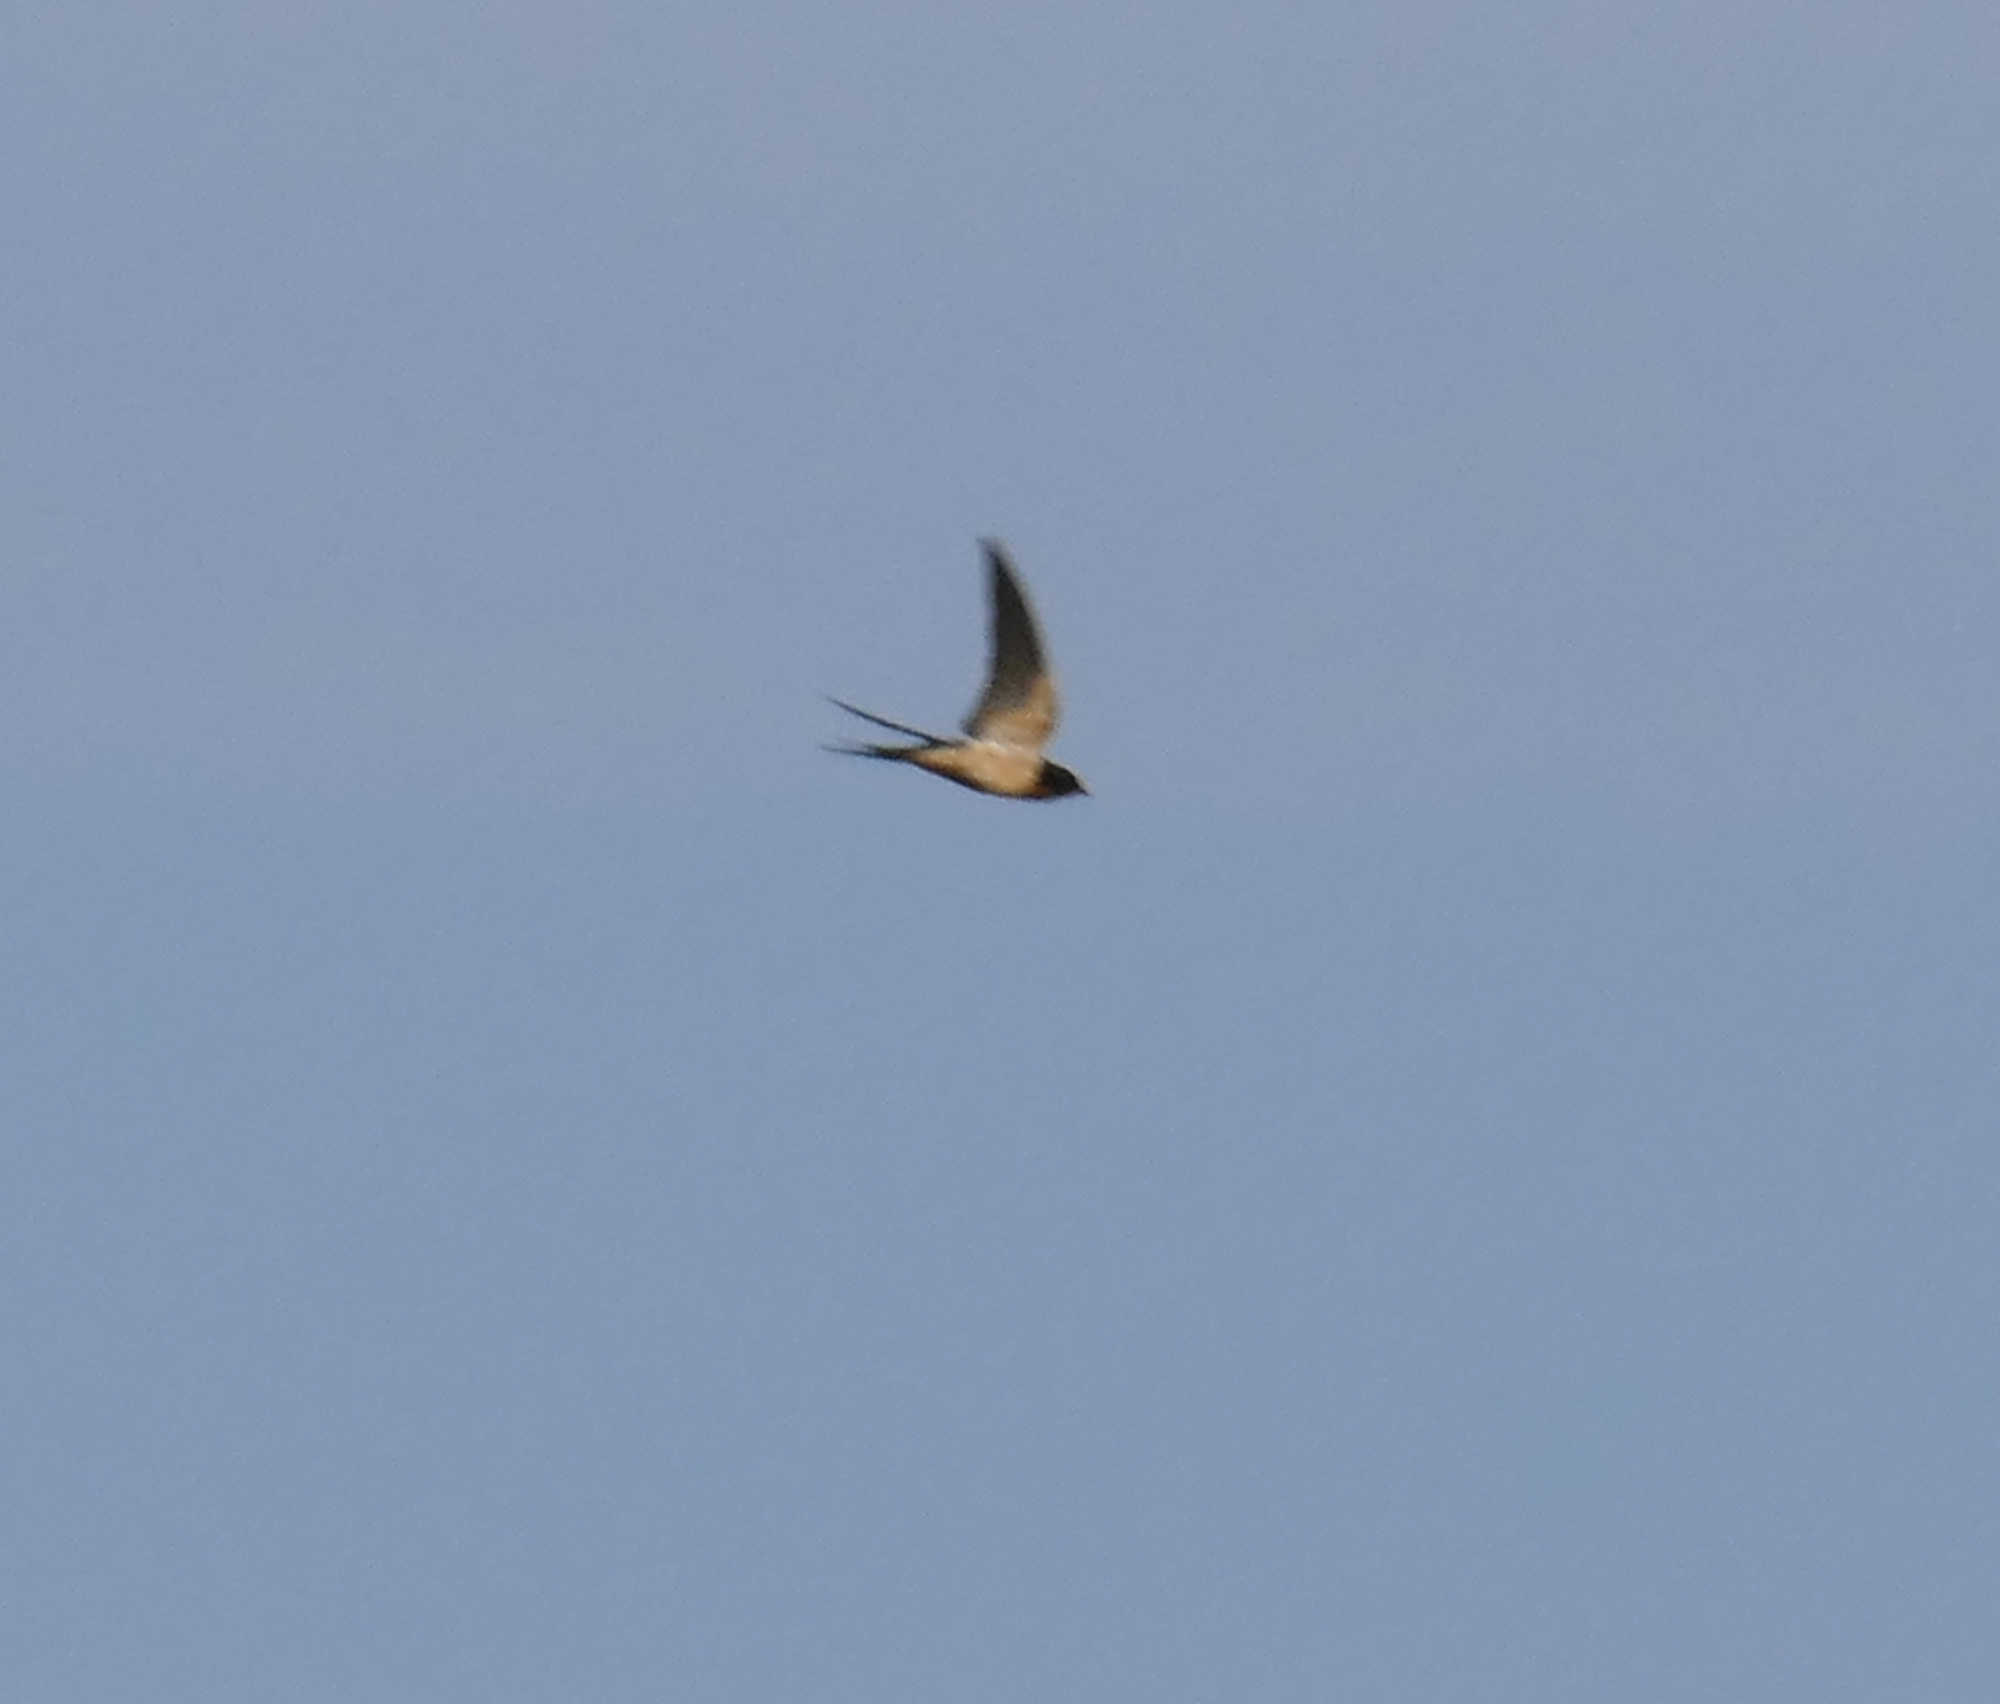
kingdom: Animalia
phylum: Chordata
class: Aves
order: Passeriformes
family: Hirundinidae
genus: Hirundo
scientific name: Hirundo rustica
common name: Barn swallow
